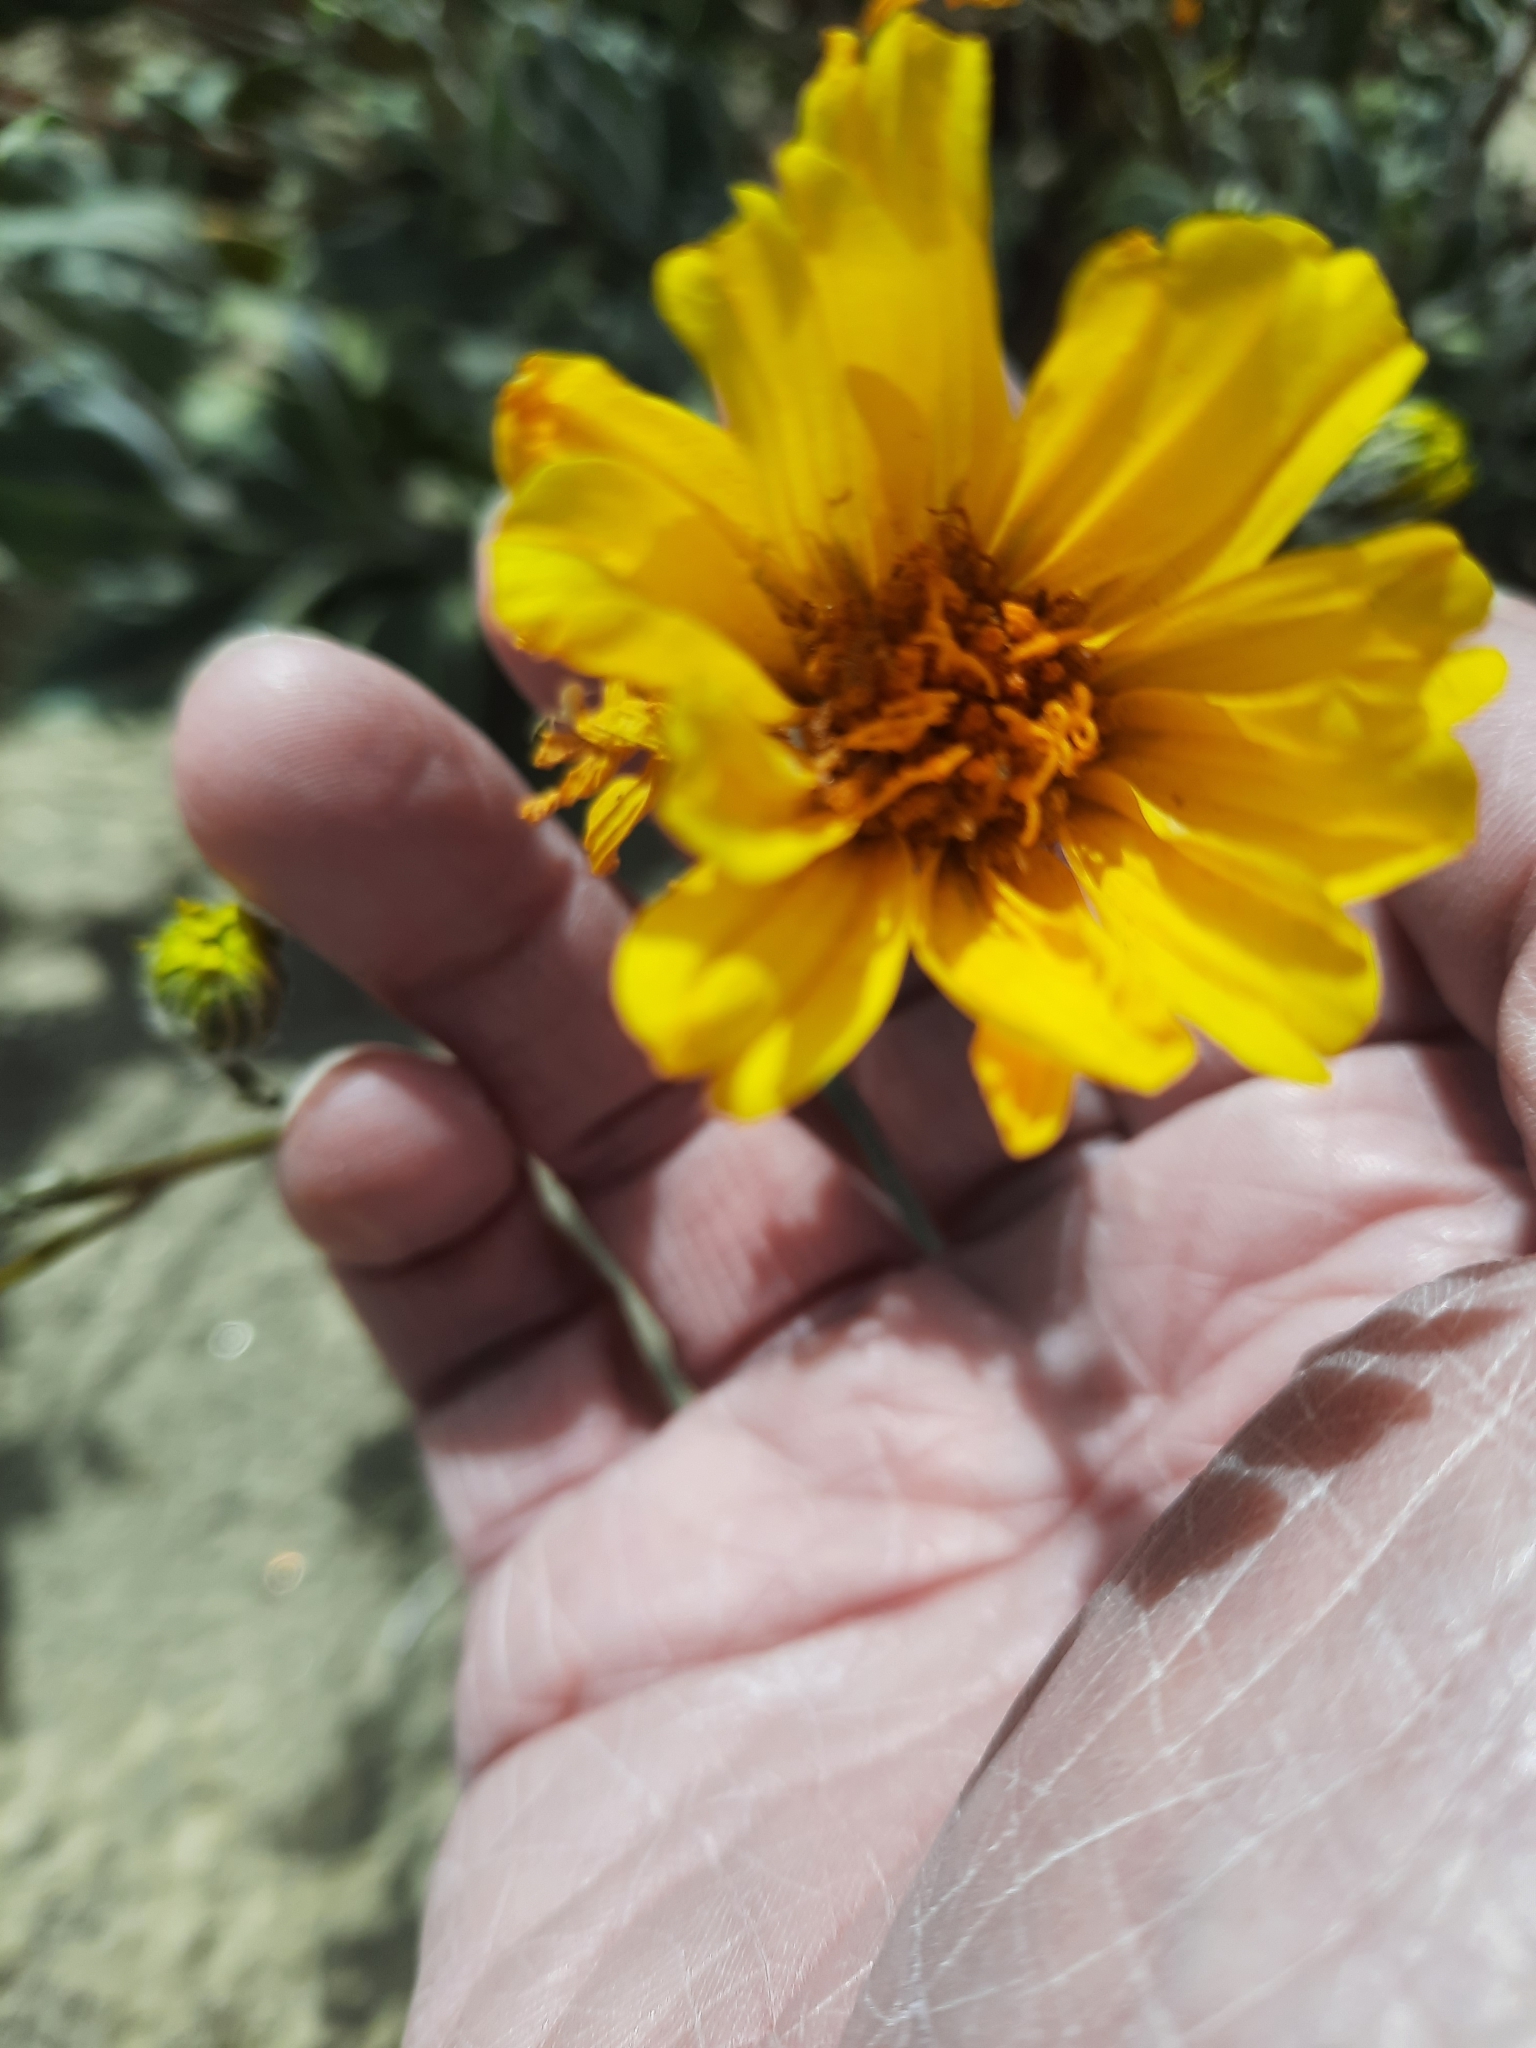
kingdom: Plantae
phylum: Tracheophyta
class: Magnoliopsida
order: Asterales
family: Asteraceae
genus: Geraea
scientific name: Geraea canescens
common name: Desert-gold
